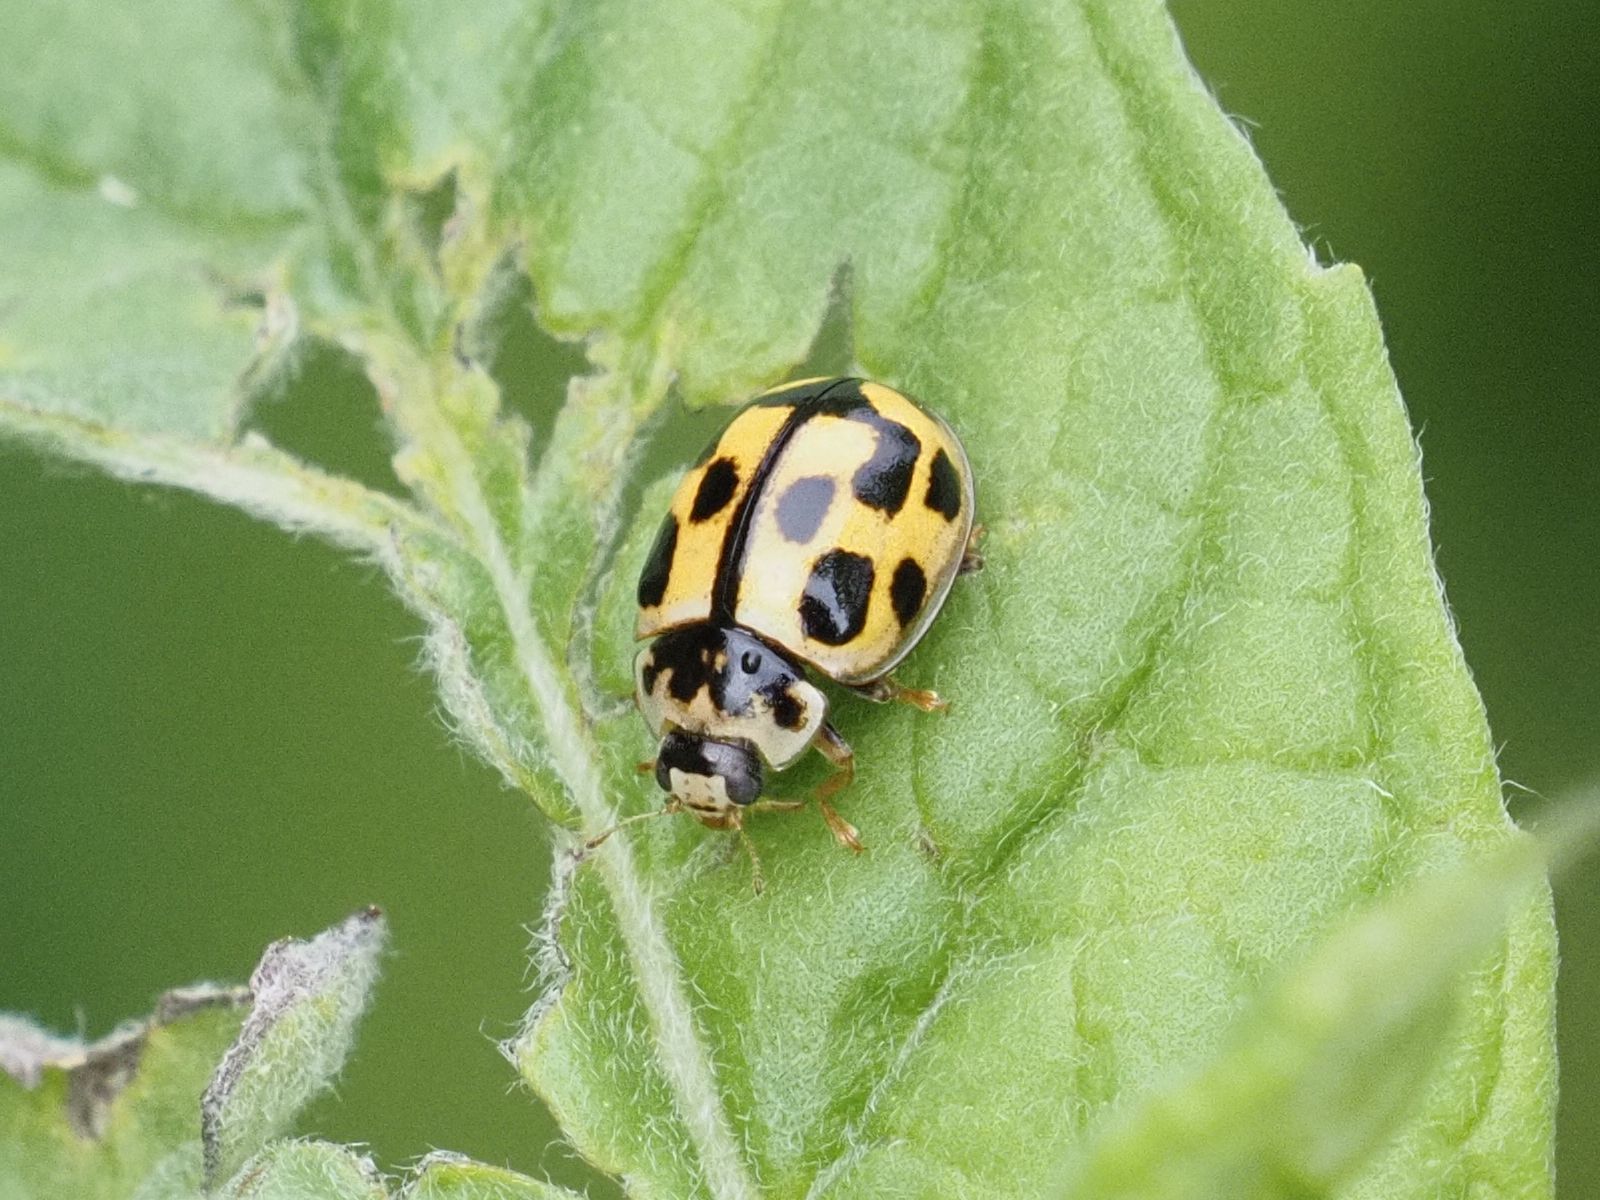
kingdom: Animalia
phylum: Arthropoda
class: Insecta
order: Coleoptera
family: Coccinellidae
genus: Propylaea
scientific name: Propylaea quatuordecimpunctata
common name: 14-spotted ladybird beetle
